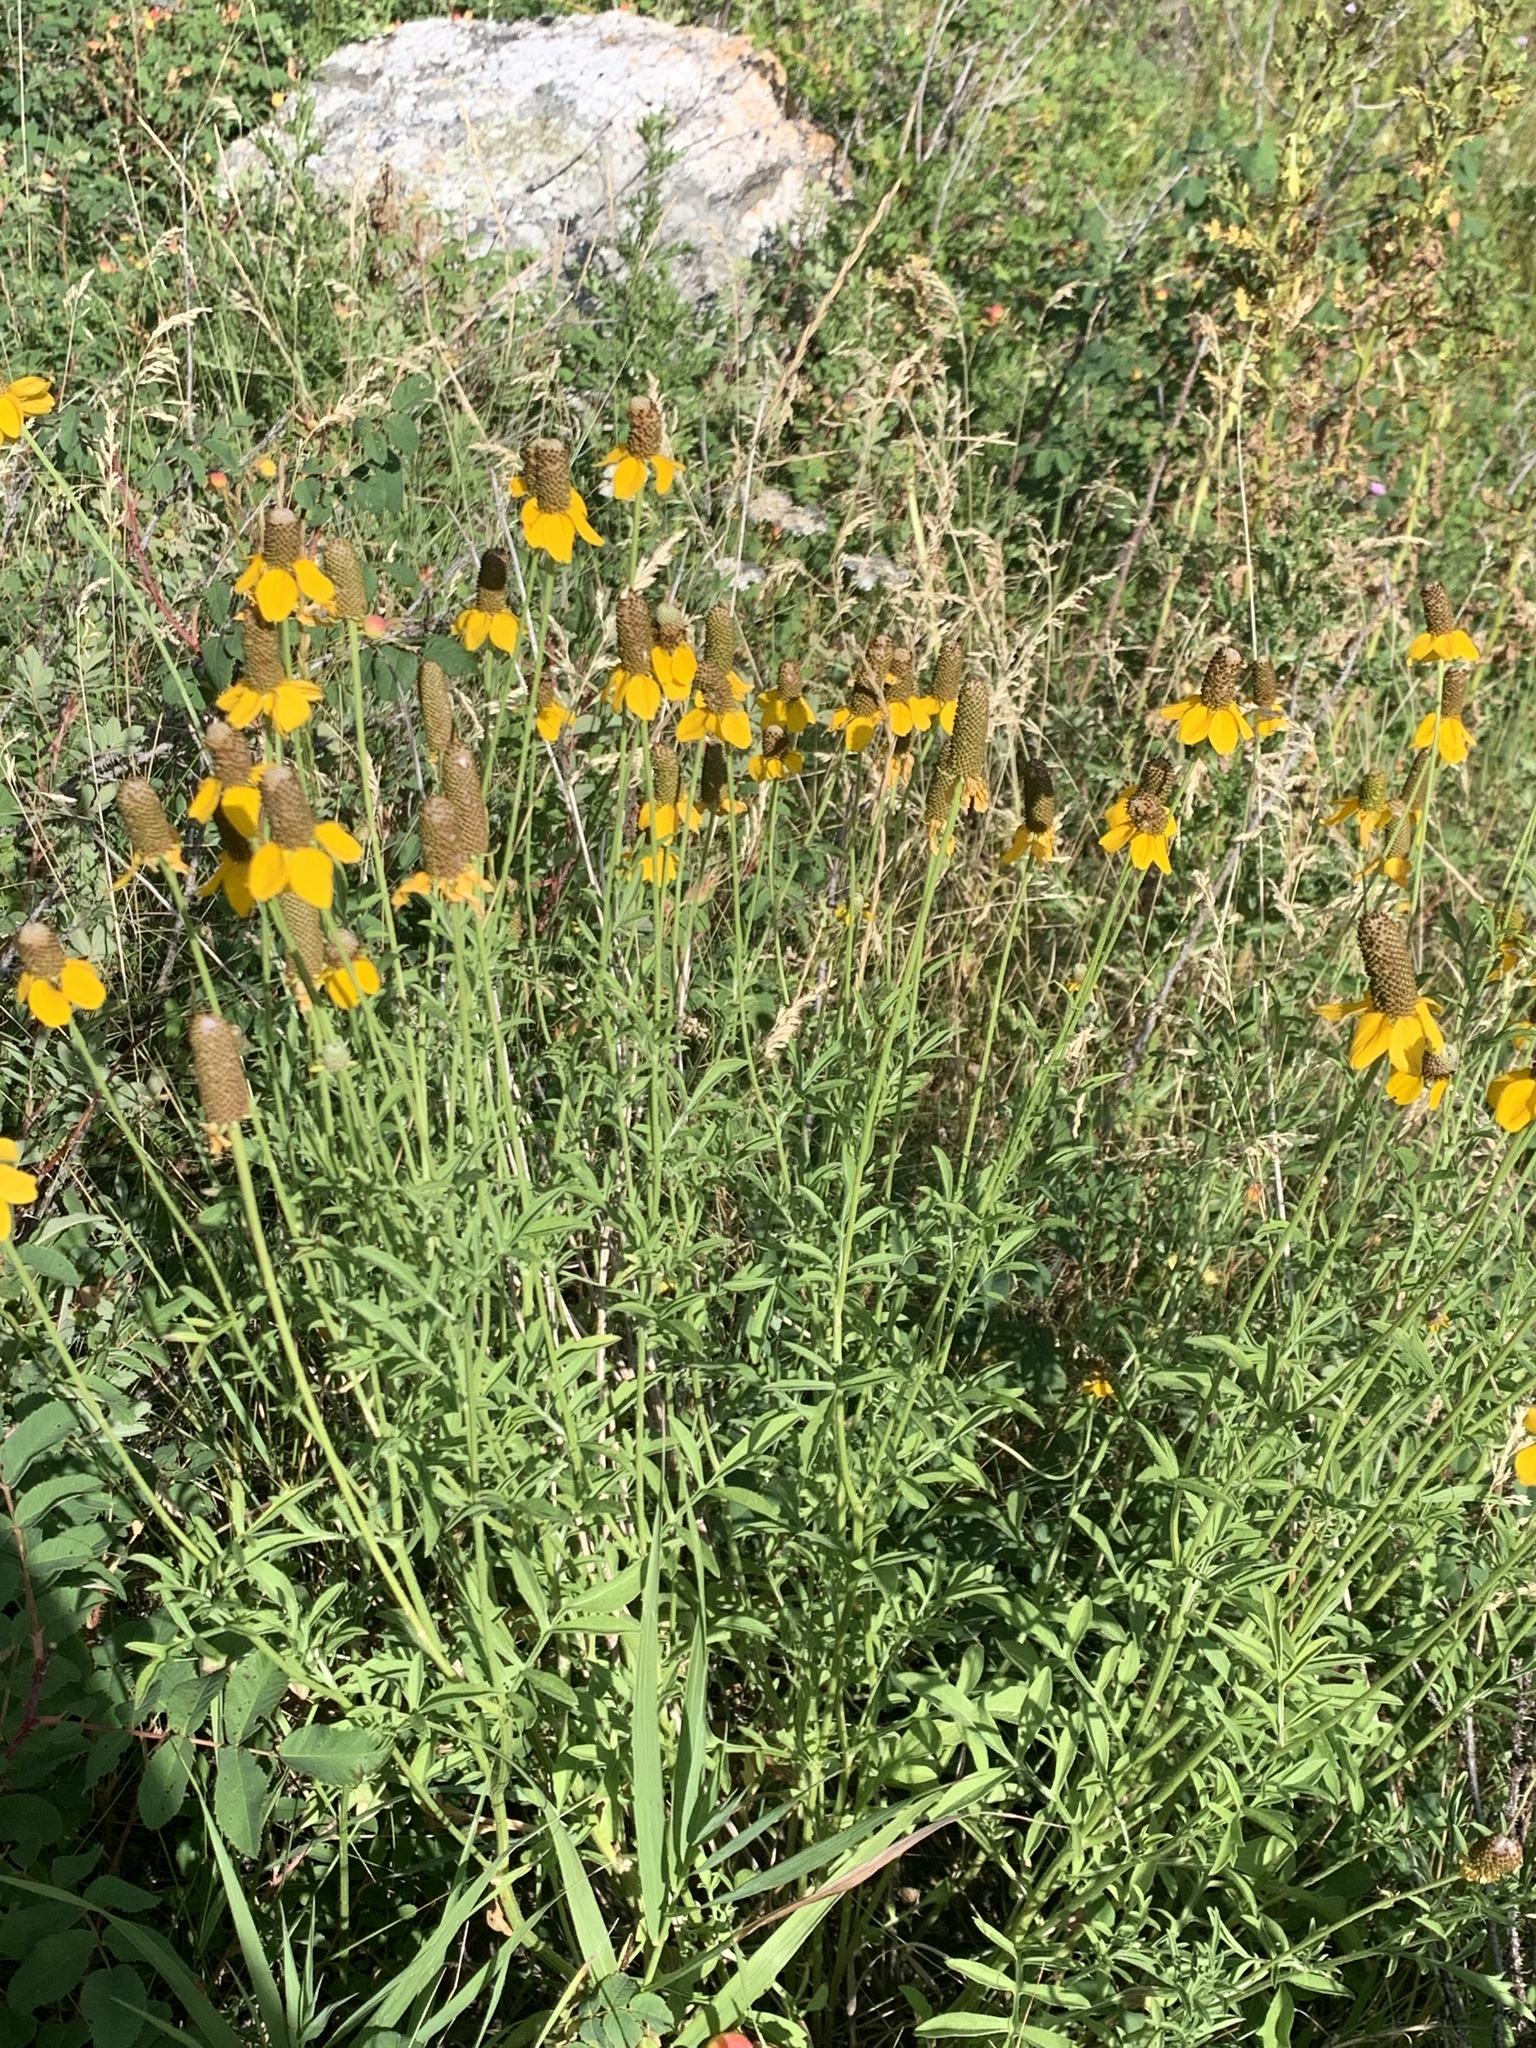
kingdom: Plantae
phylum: Tracheophyta
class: Magnoliopsida
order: Asterales
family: Asteraceae
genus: Ratibida
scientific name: Ratibida columnifera
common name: Prairie coneflower
